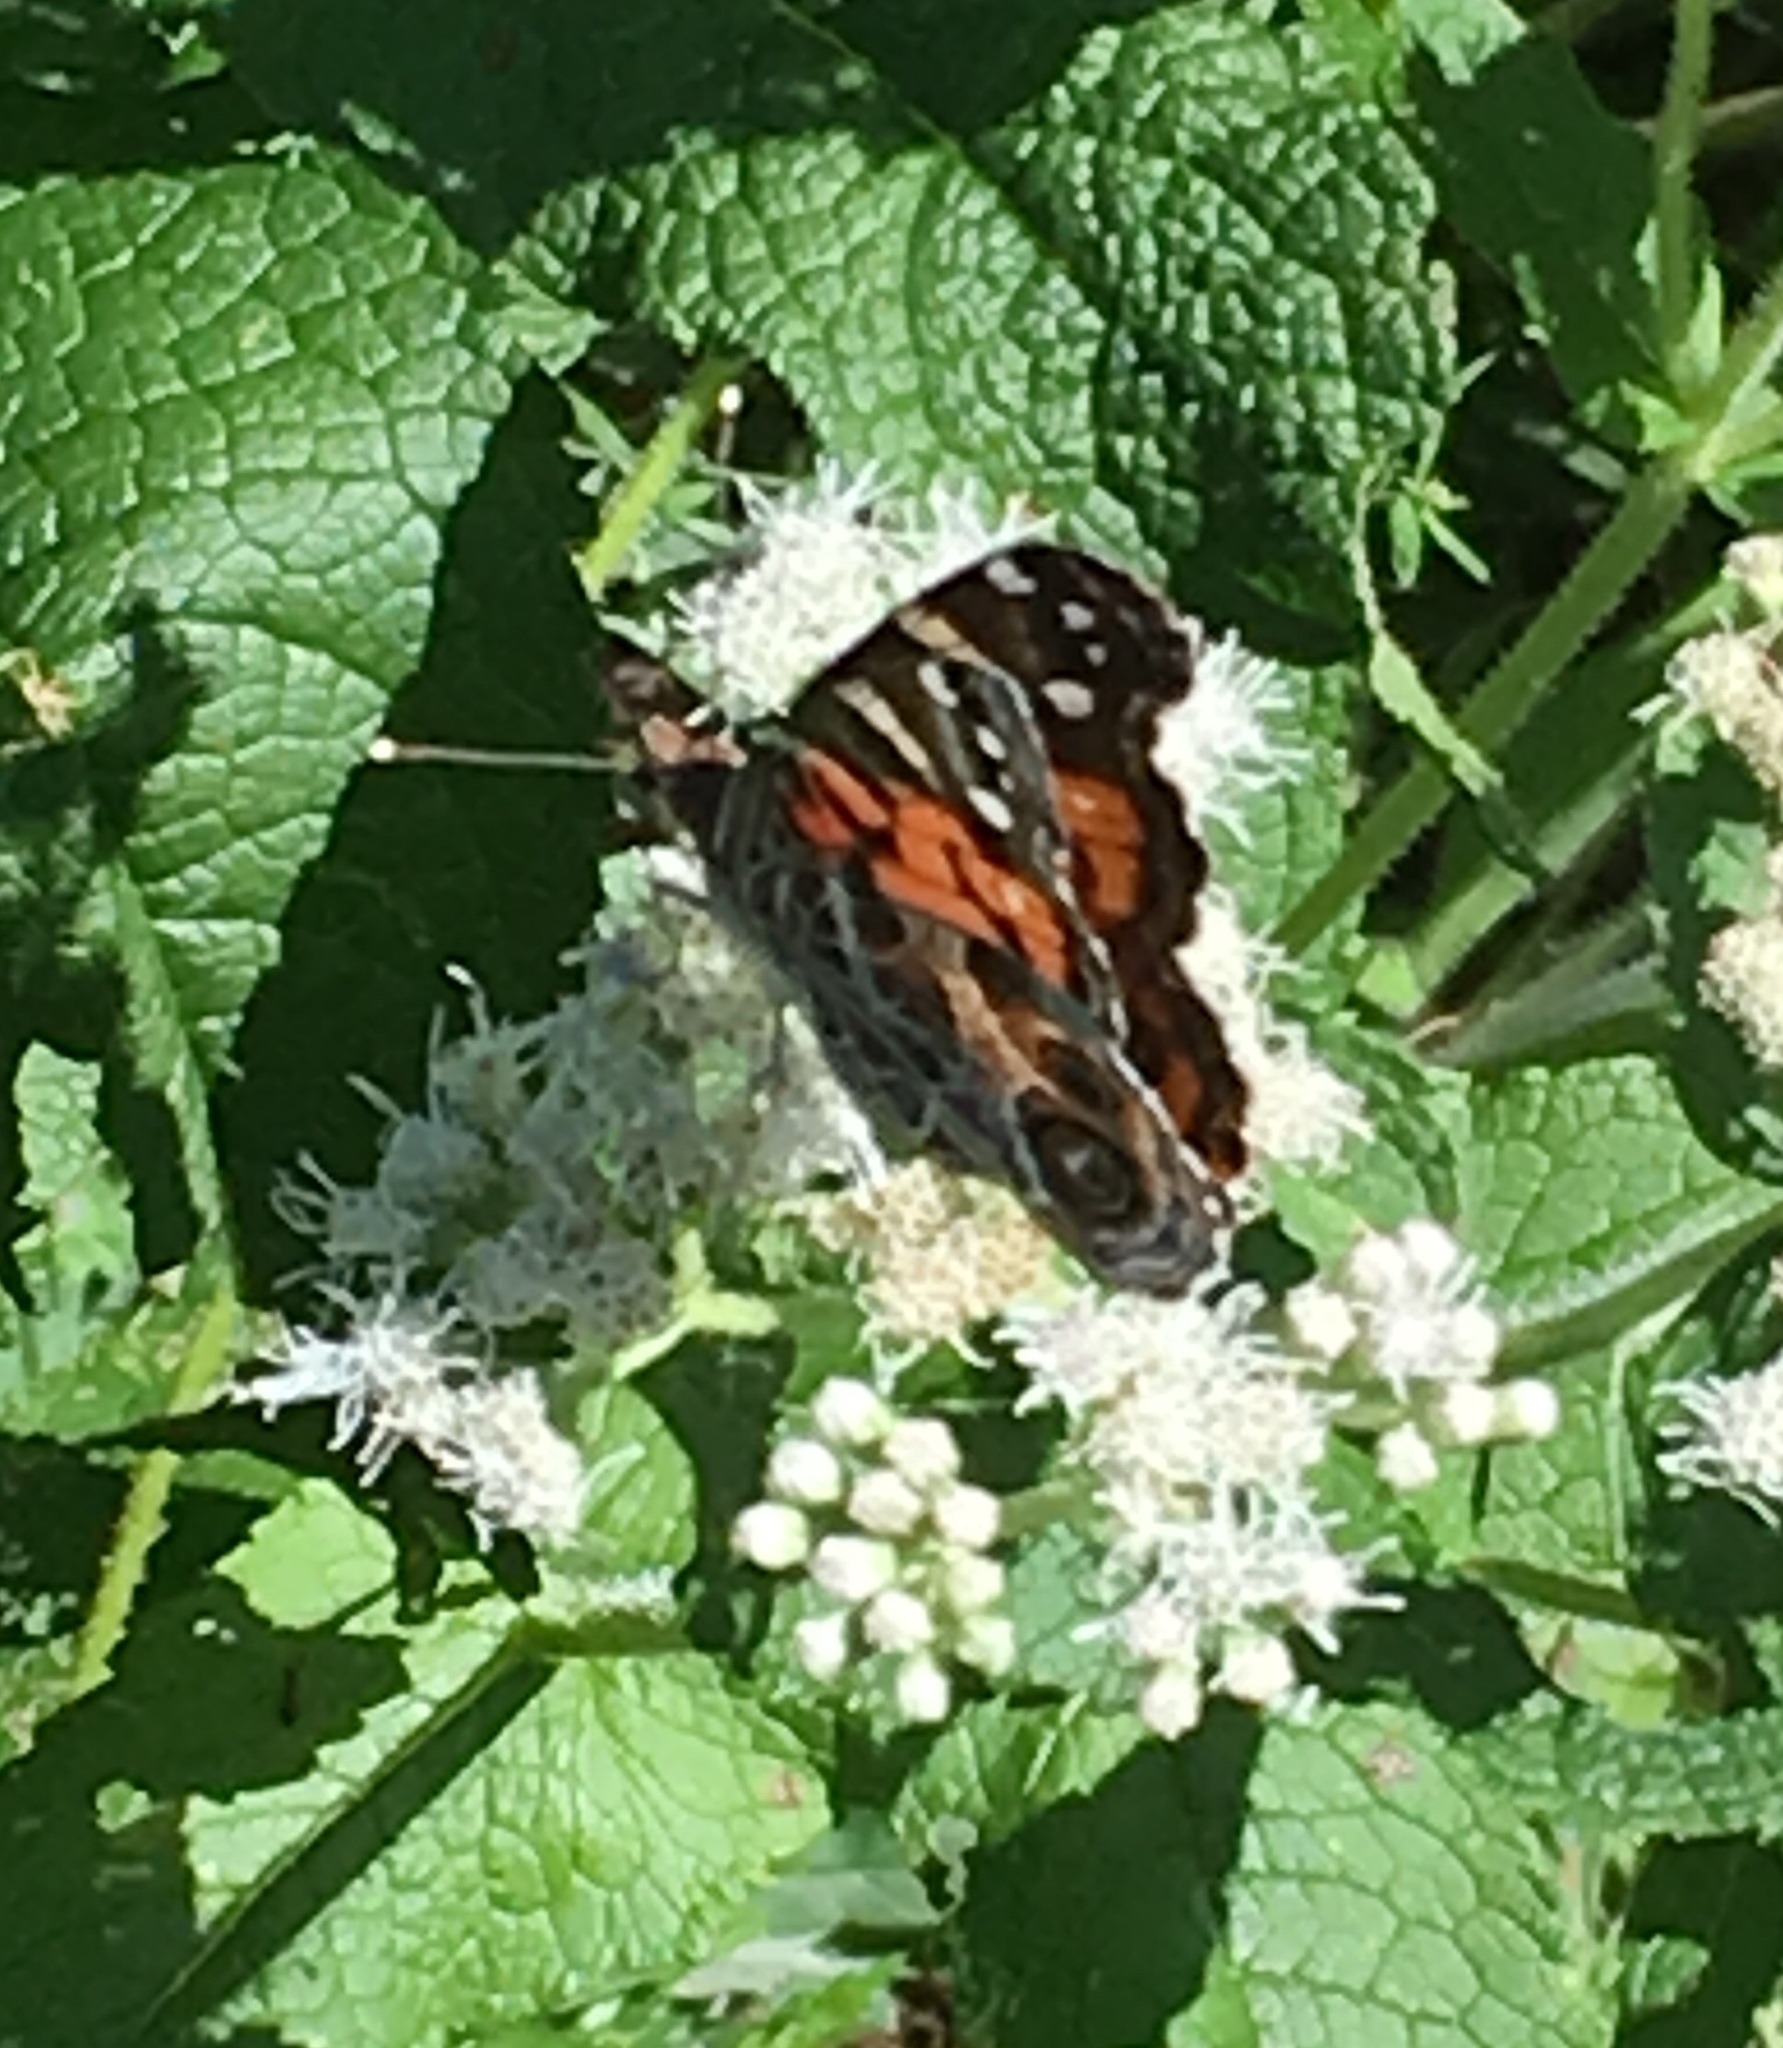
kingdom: Animalia
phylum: Arthropoda
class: Insecta
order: Lepidoptera
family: Nymphalidae
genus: Vanessa
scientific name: Vanessa virginiensis
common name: American lady
